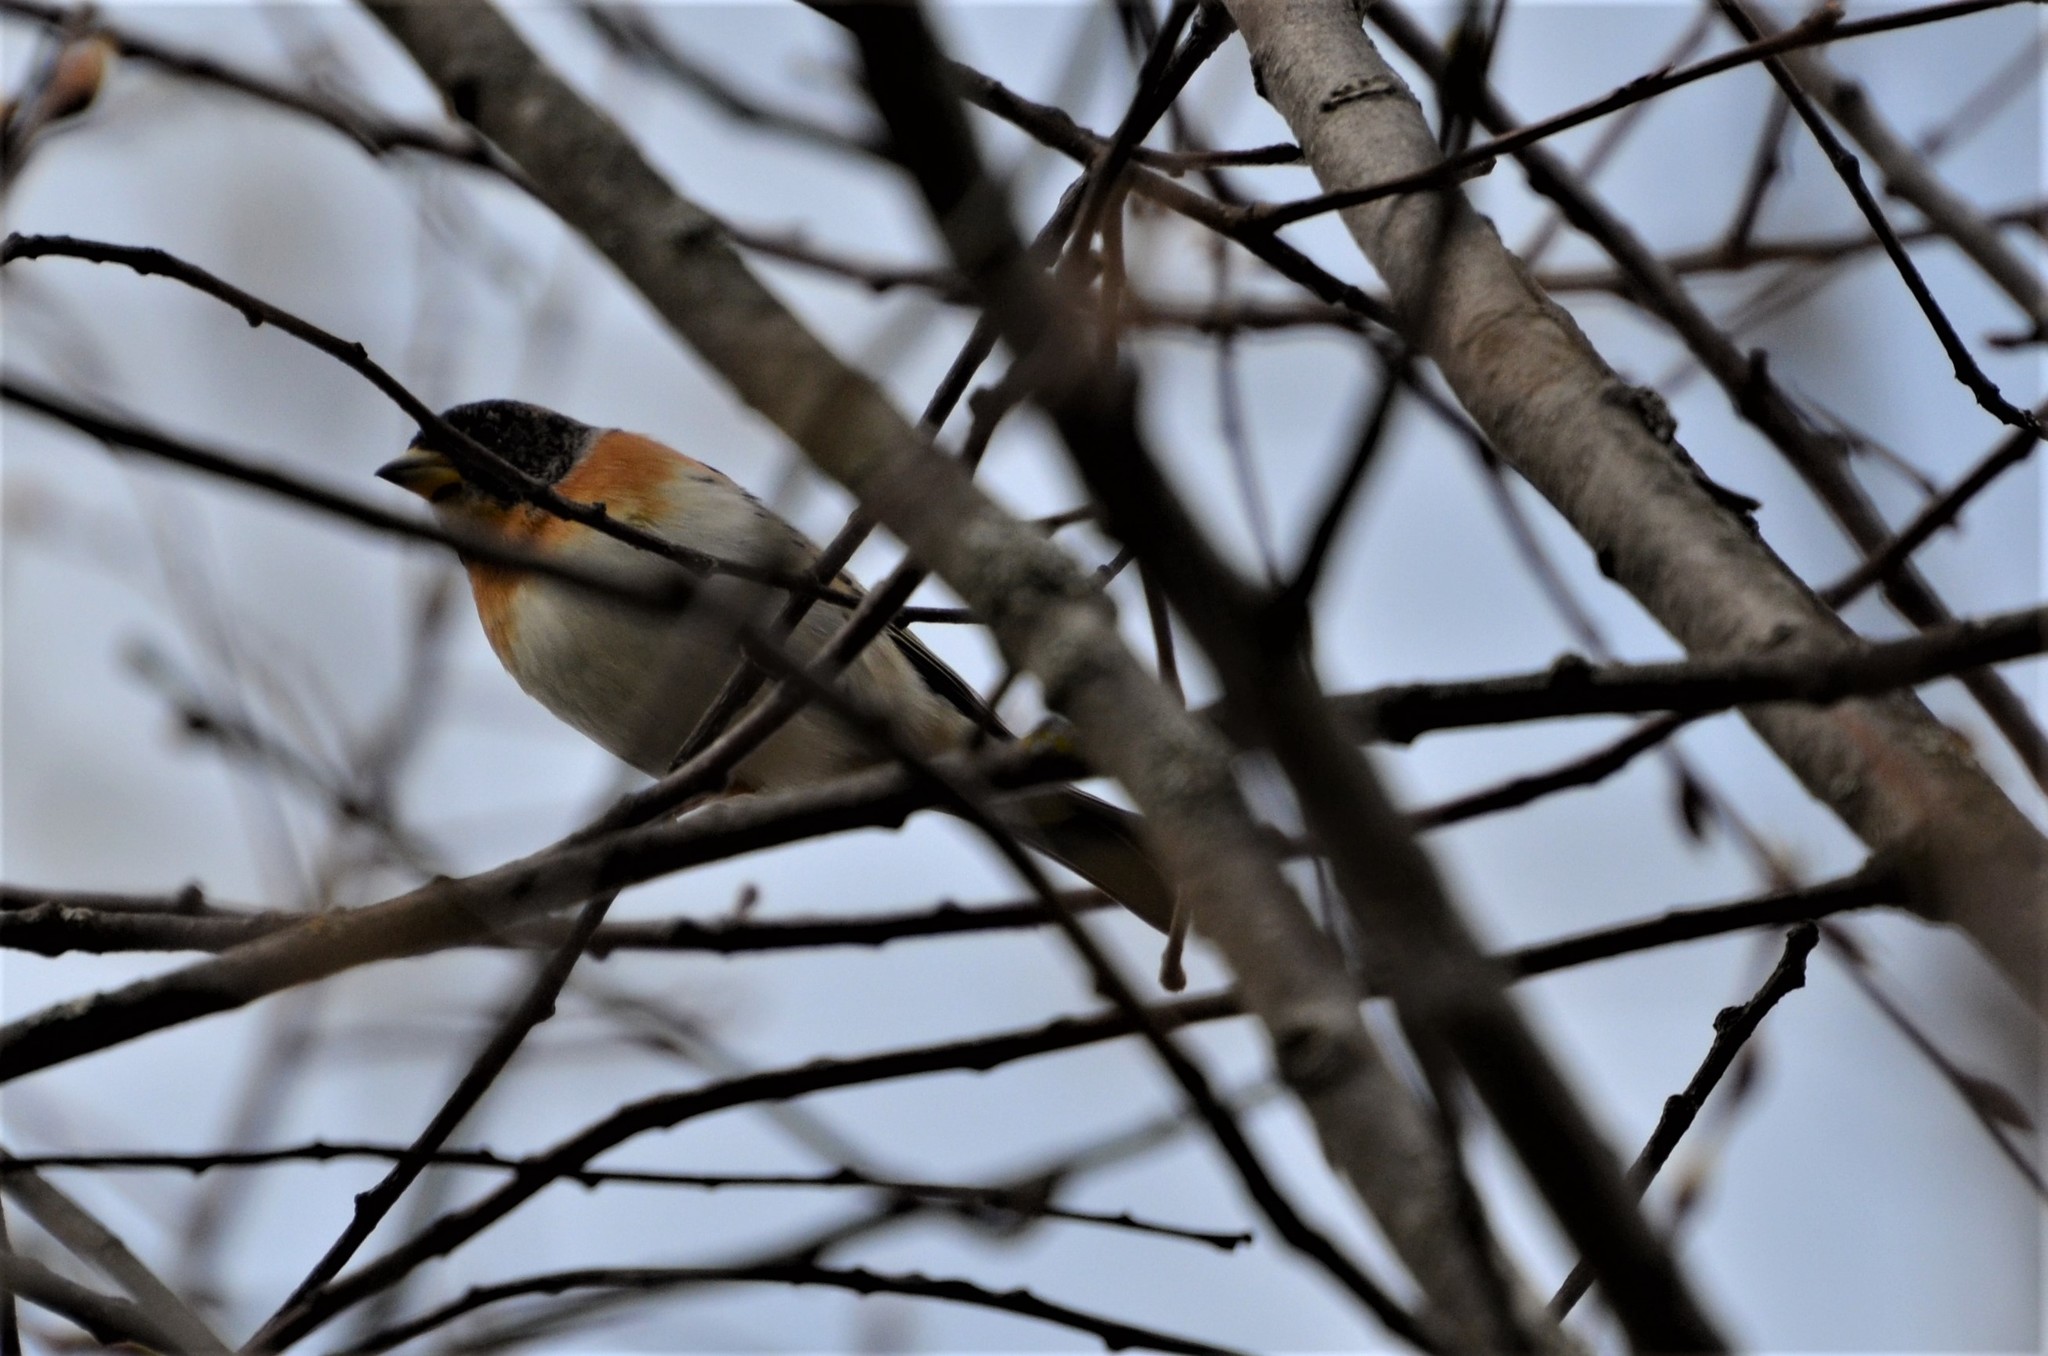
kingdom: Animalia
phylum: Chordata
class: Aves
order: Passeriformes
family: Fringillidae
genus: Fringilla
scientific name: Fringilla montifringilla
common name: Brambling
